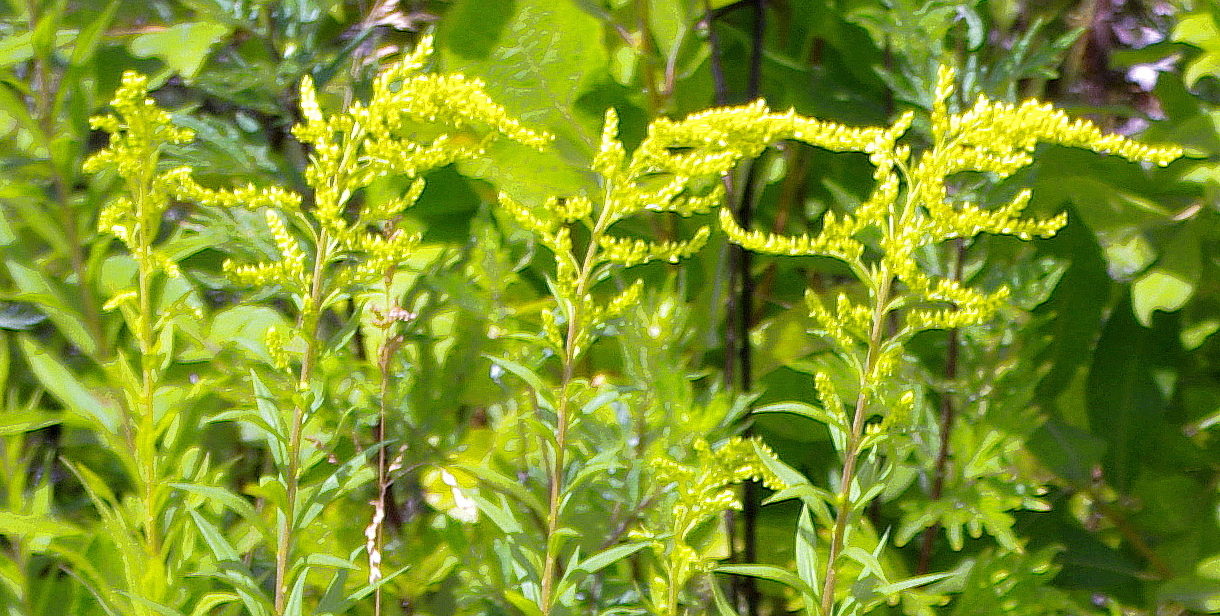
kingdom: Plantae
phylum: Tracheophyta
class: Magnoliopsida
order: Asterales
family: Asteraceae
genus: Solidago
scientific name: Solidago canadensis
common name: Canada goldenrod
